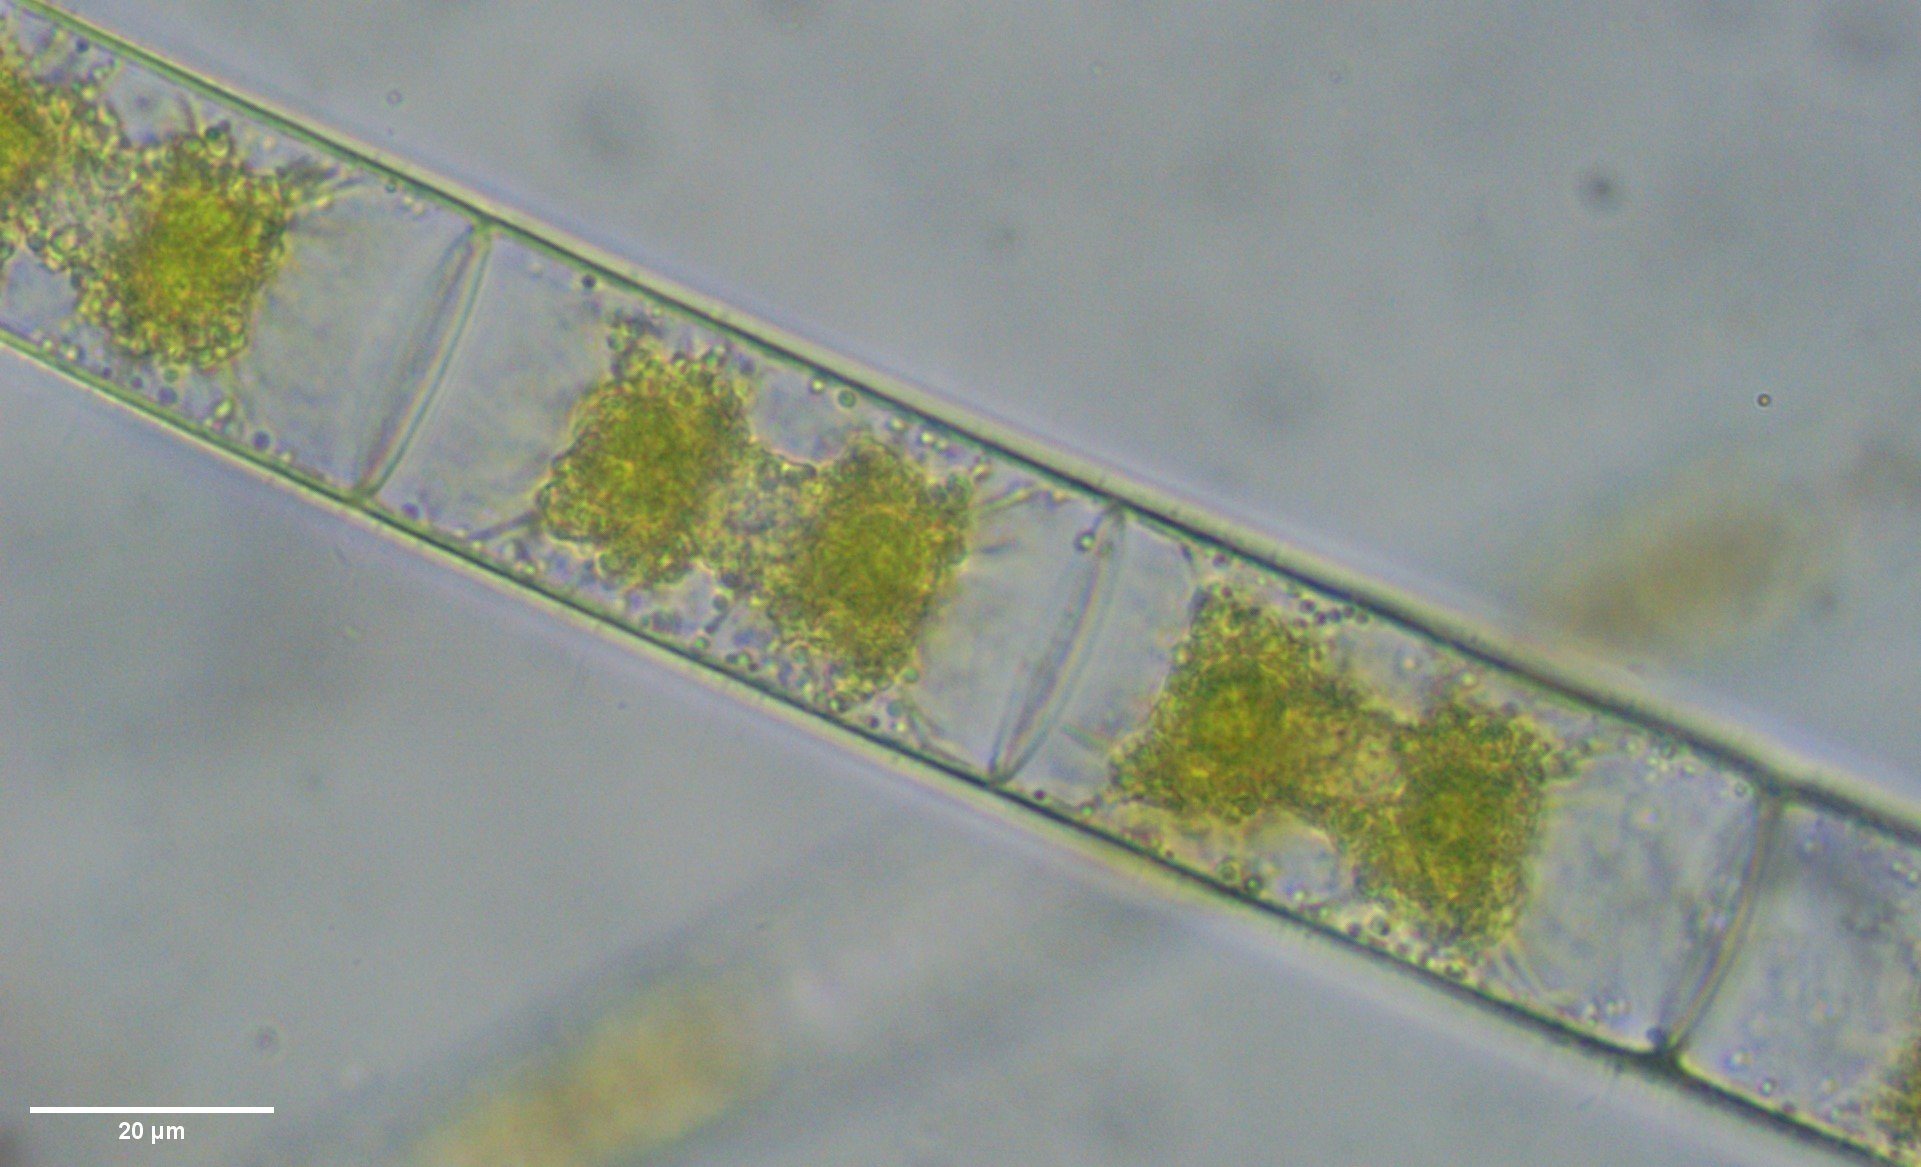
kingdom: Plantae
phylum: Charophyta
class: Zygnematophyceae
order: Zygnematales
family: Zygnemataceae
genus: Zygnema
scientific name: Zygnema
